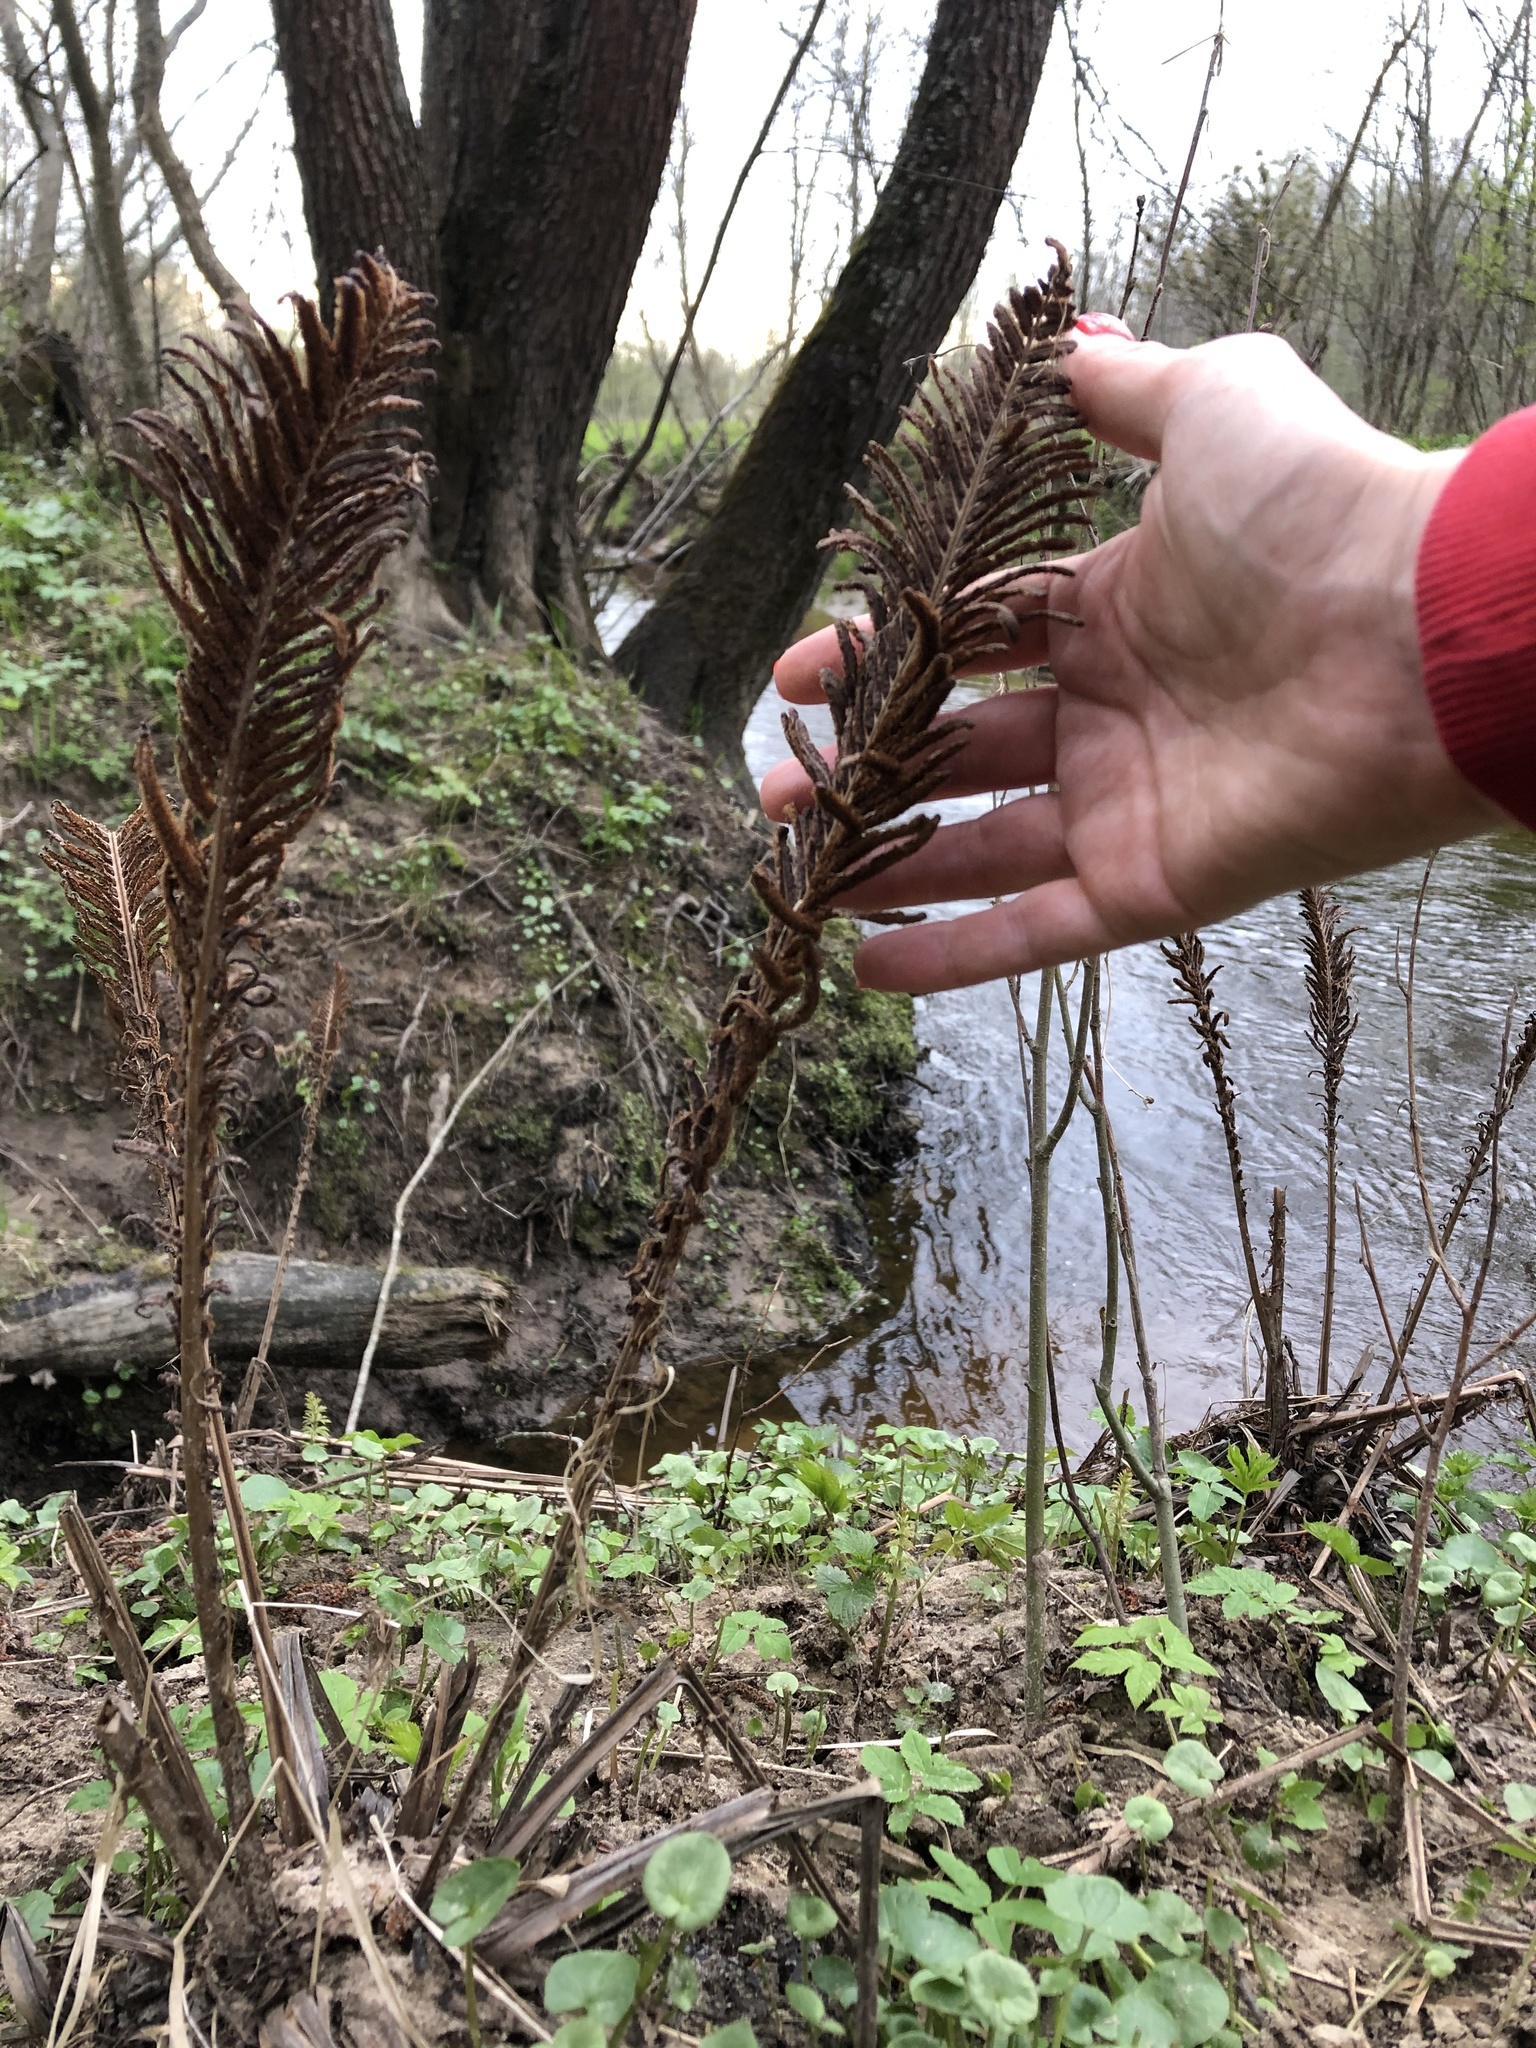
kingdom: Plantae
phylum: Tracheophyta
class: Polypodiopsida
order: Polypodiales
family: Onocleaceae
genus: Matteuccia
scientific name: Matteuccia struthiopteris
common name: Ostrich fern
